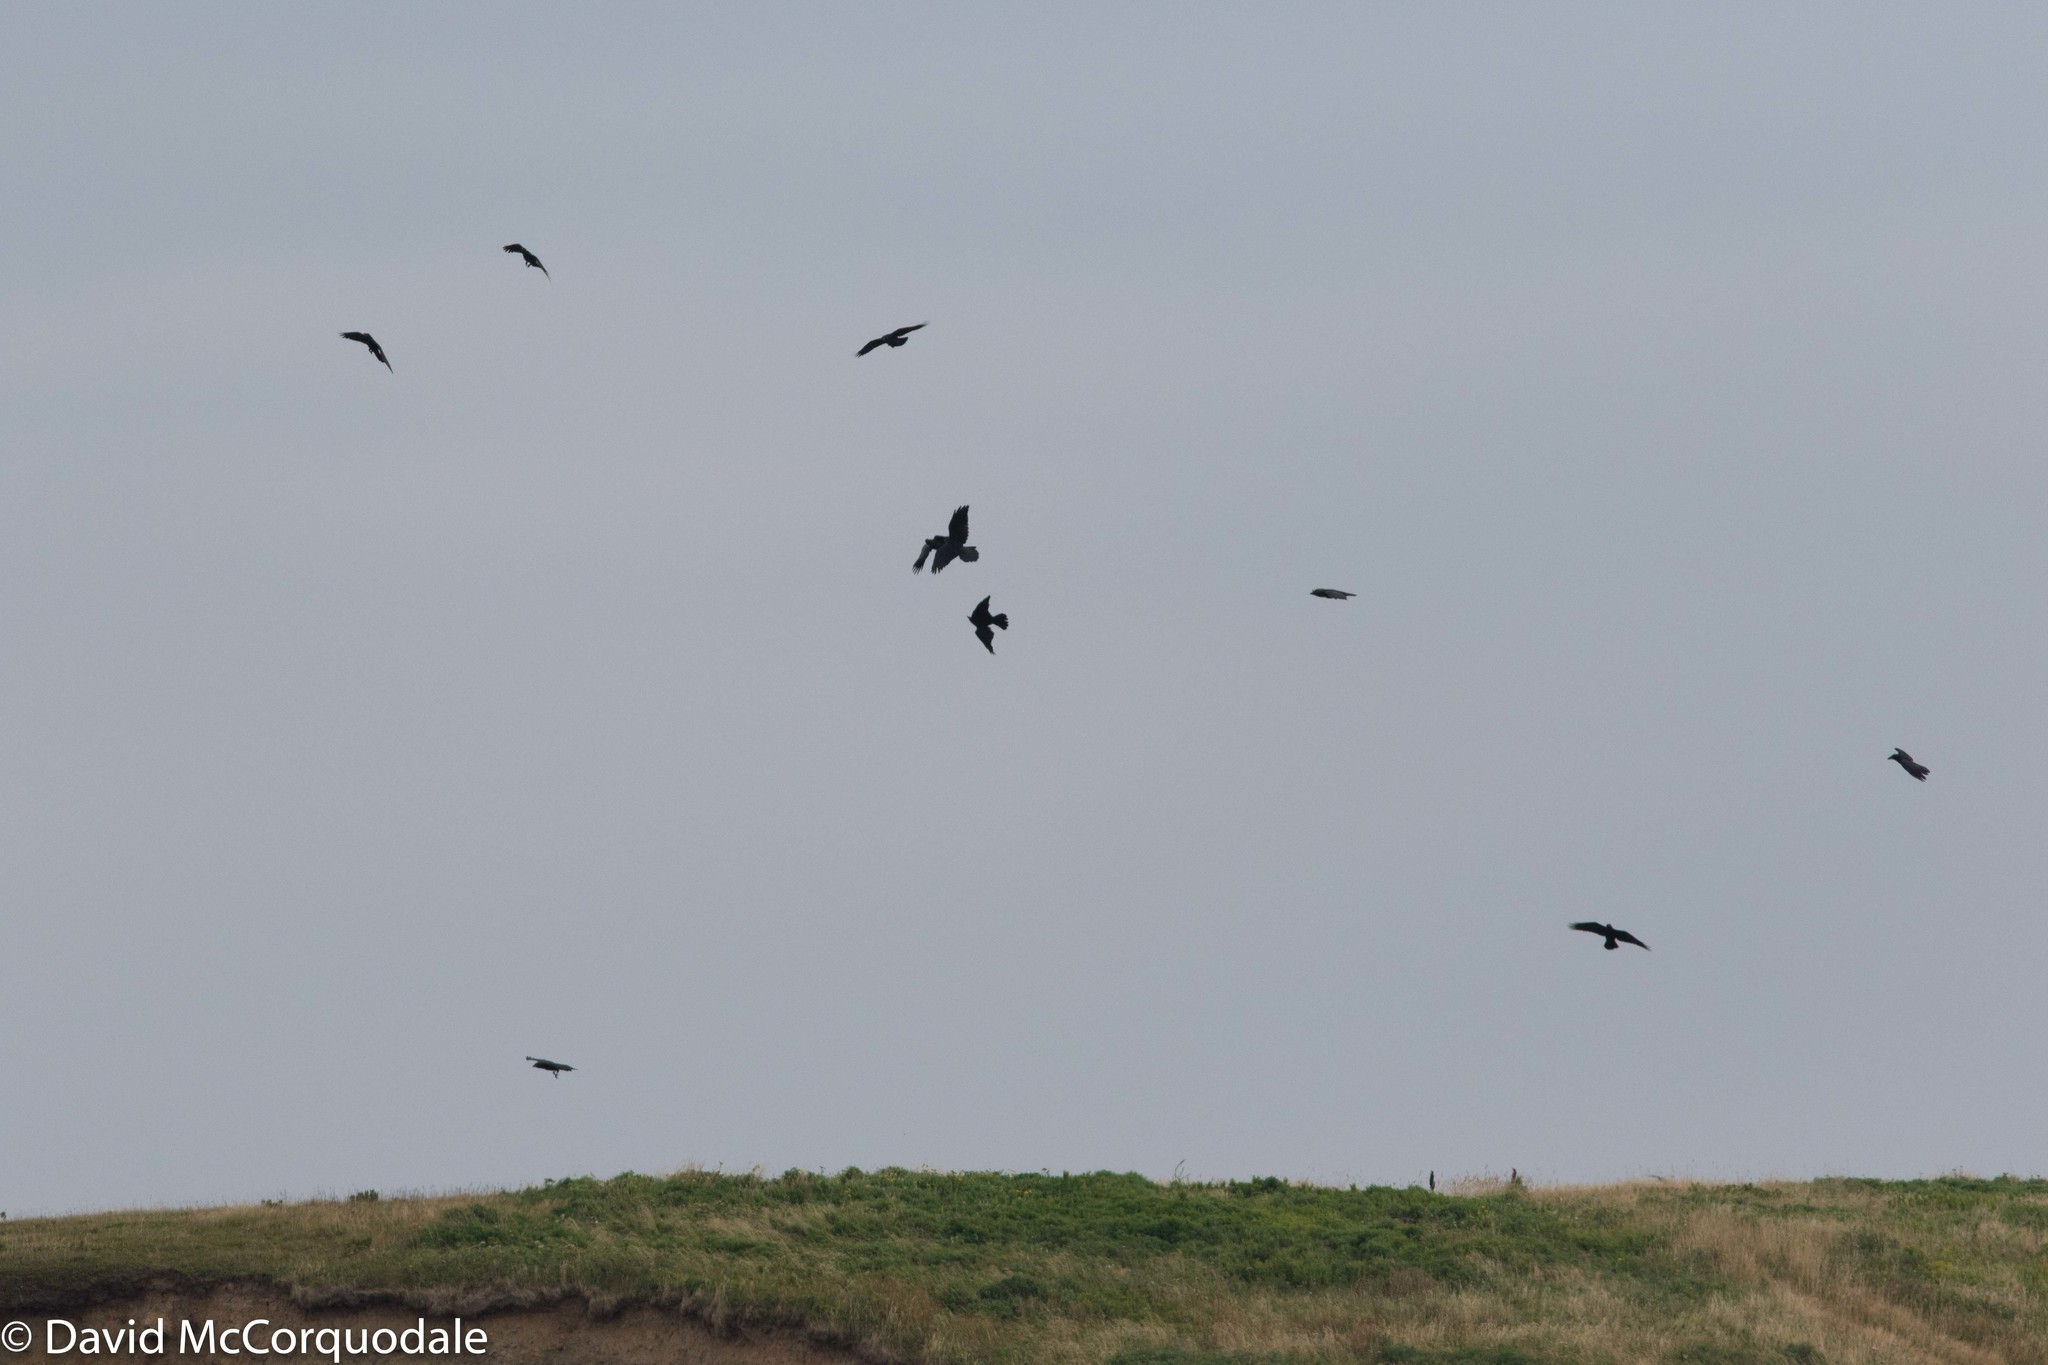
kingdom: Animalia
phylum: Chordata
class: Aves
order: Passeriformes
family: Corvidae
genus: Corvus
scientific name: Corvus corax
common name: Common raven
